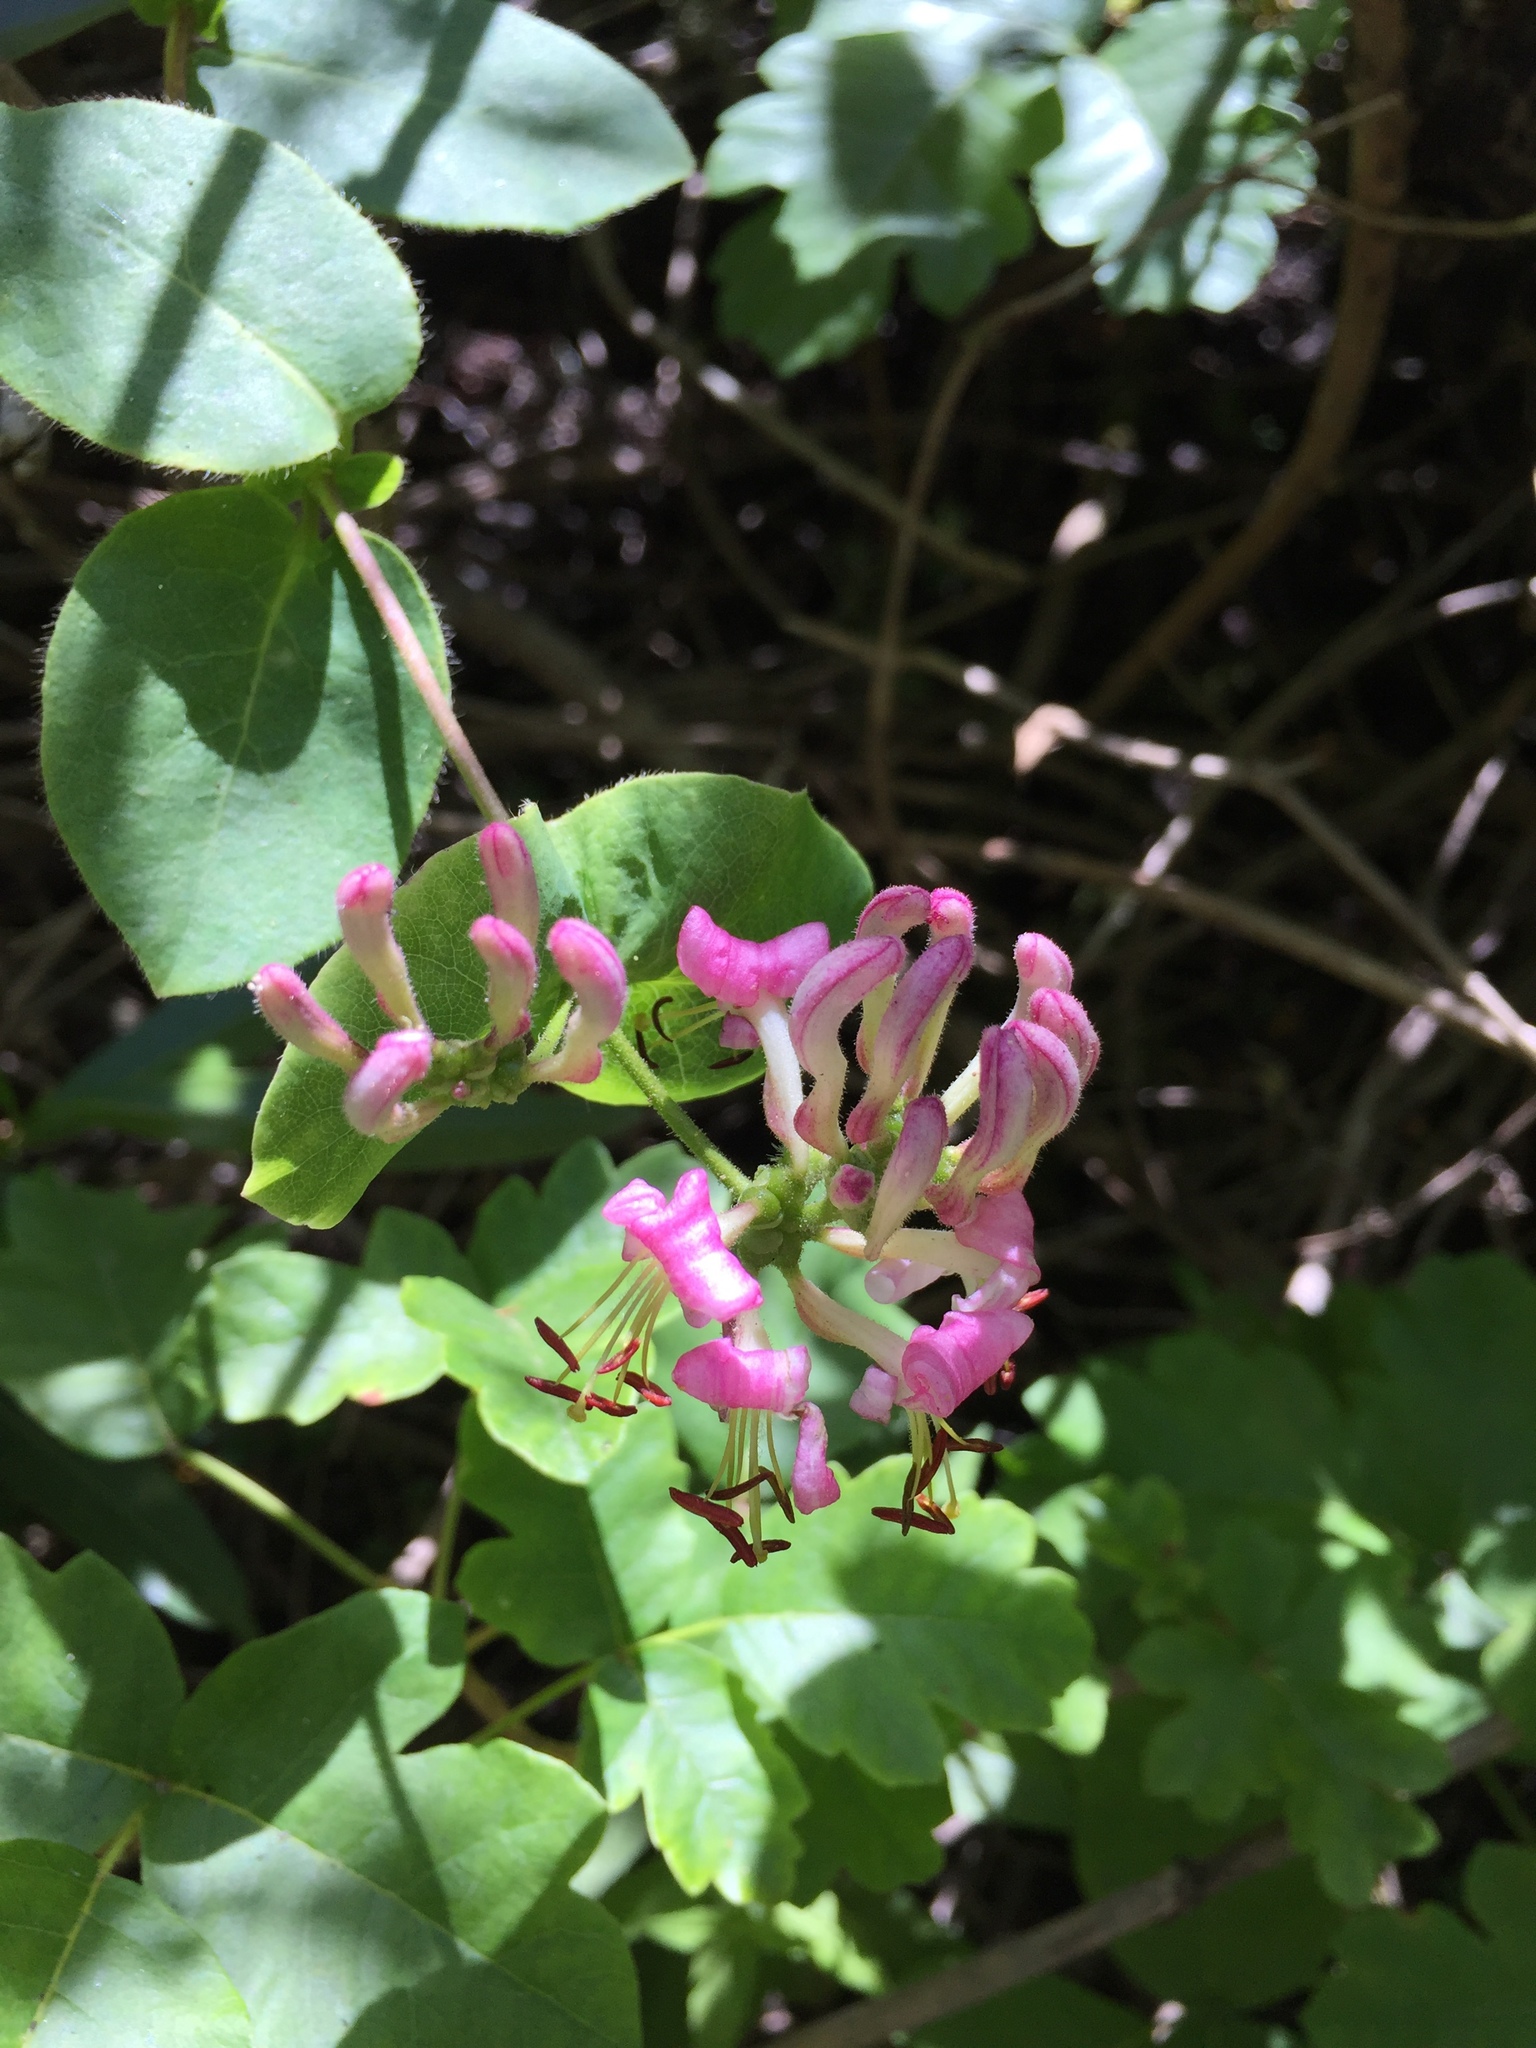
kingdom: Plantae
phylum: Tracheophyta
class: Magnoliopsida
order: Dipsacales
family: Caprifoliaceae
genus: Lonicera
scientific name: Lonicera hispidula
